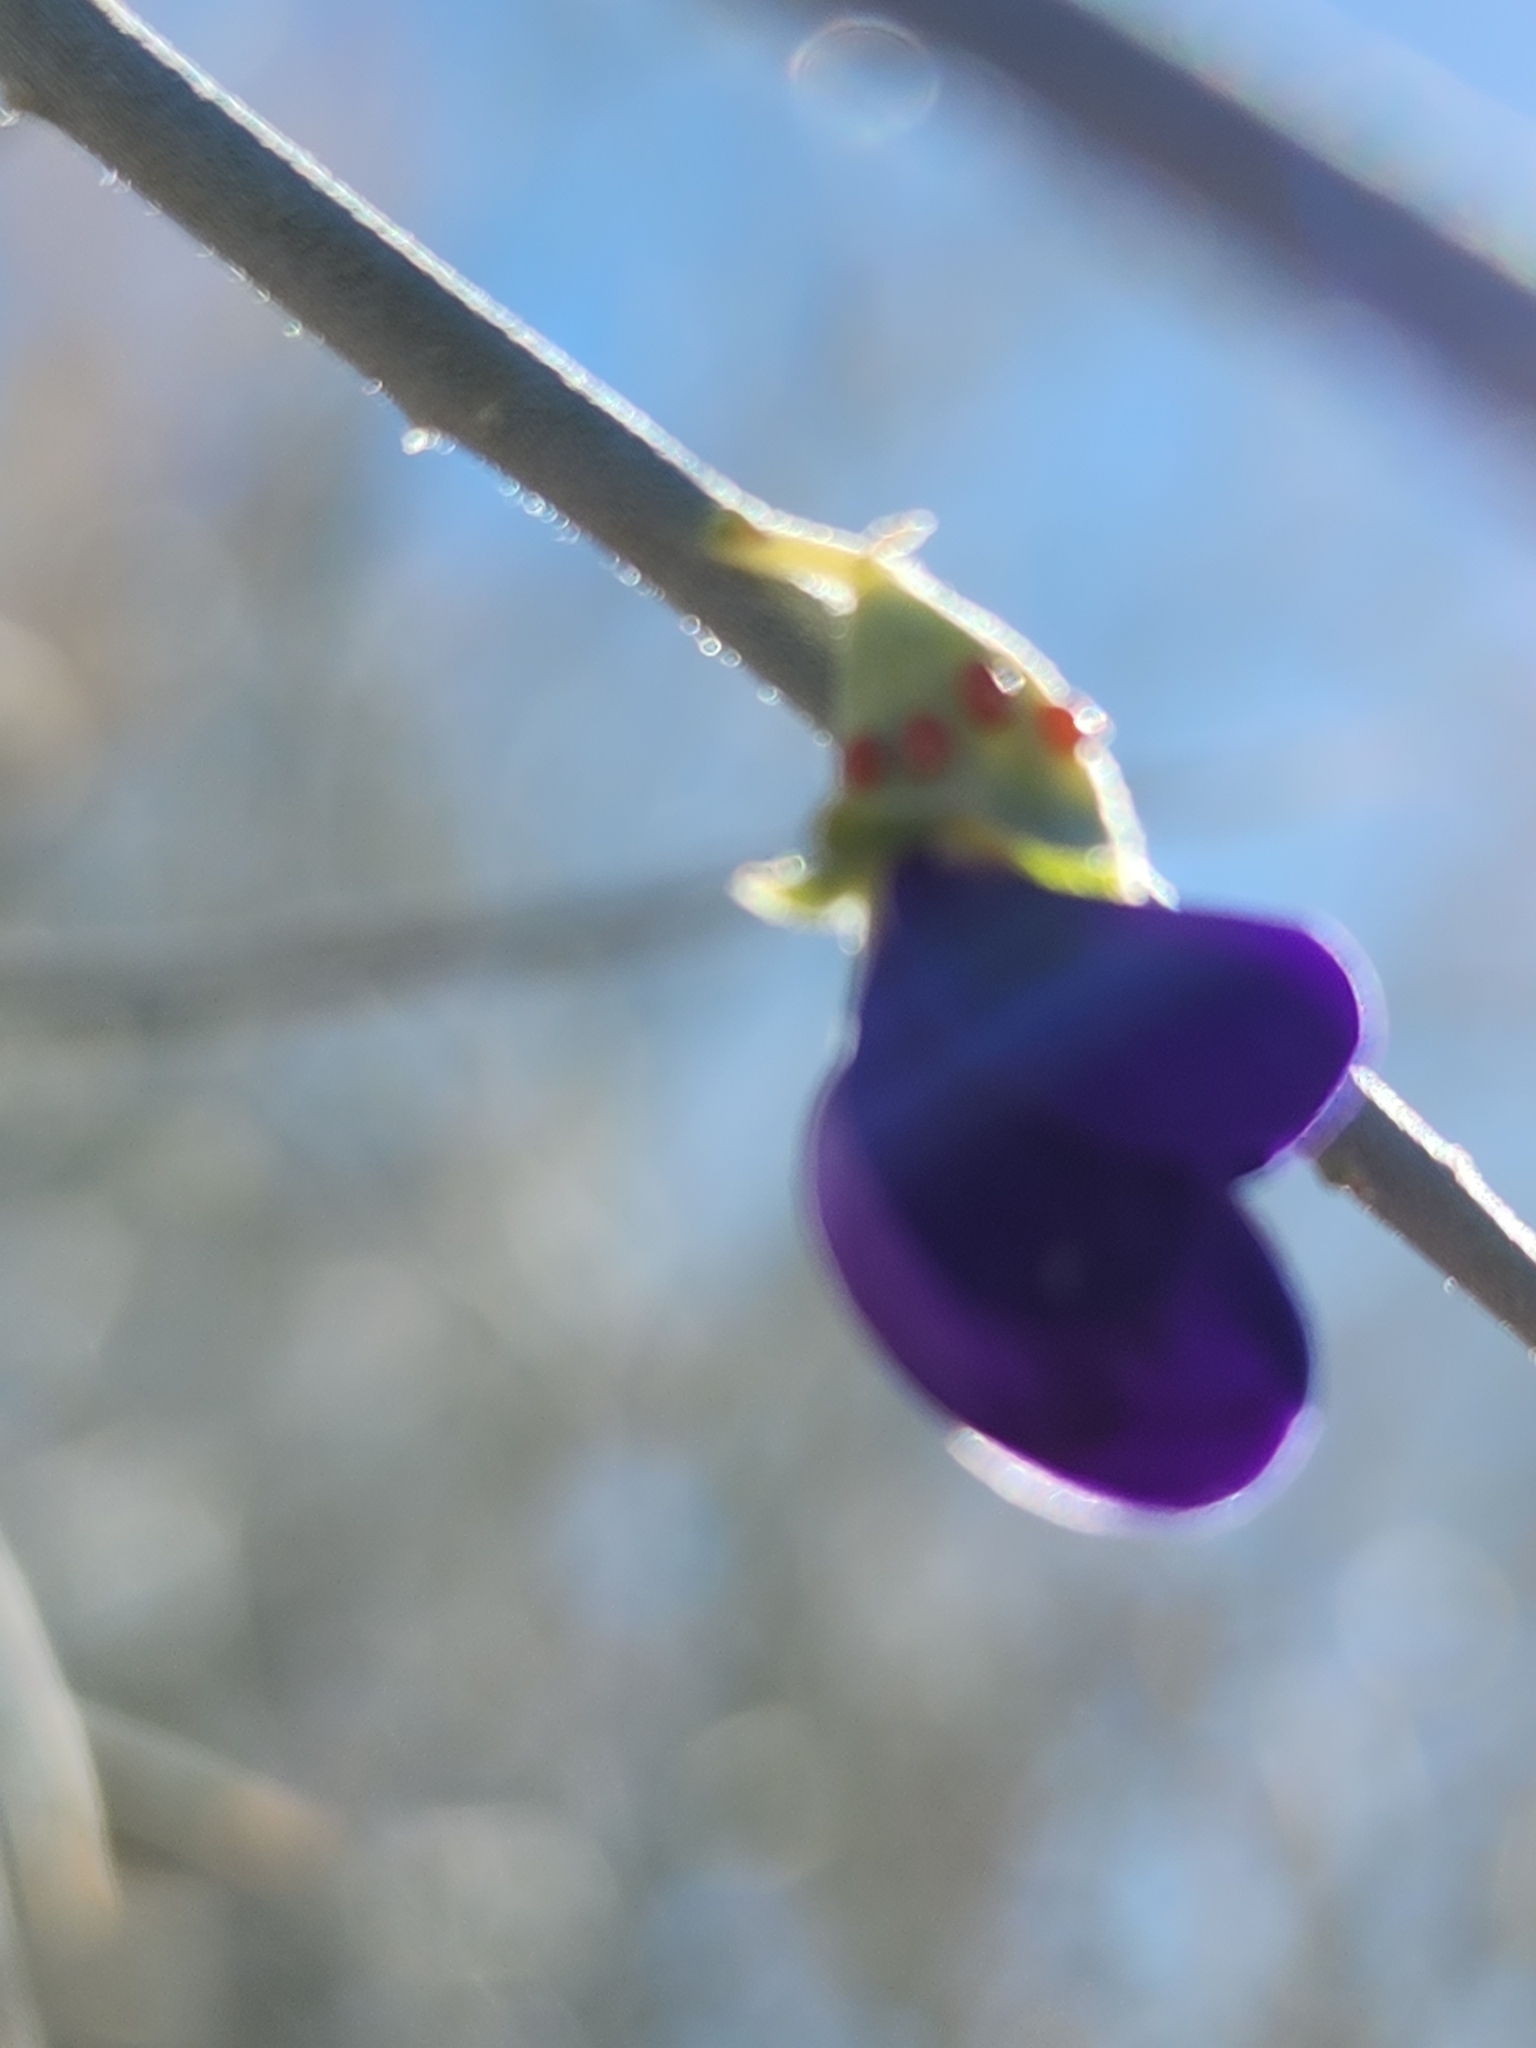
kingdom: Plantae
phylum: Tracheophyta
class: Magnoliopsida
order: Fabales
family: Fabaceae
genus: Psorothamnus
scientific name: Psorothamnus spinosus
